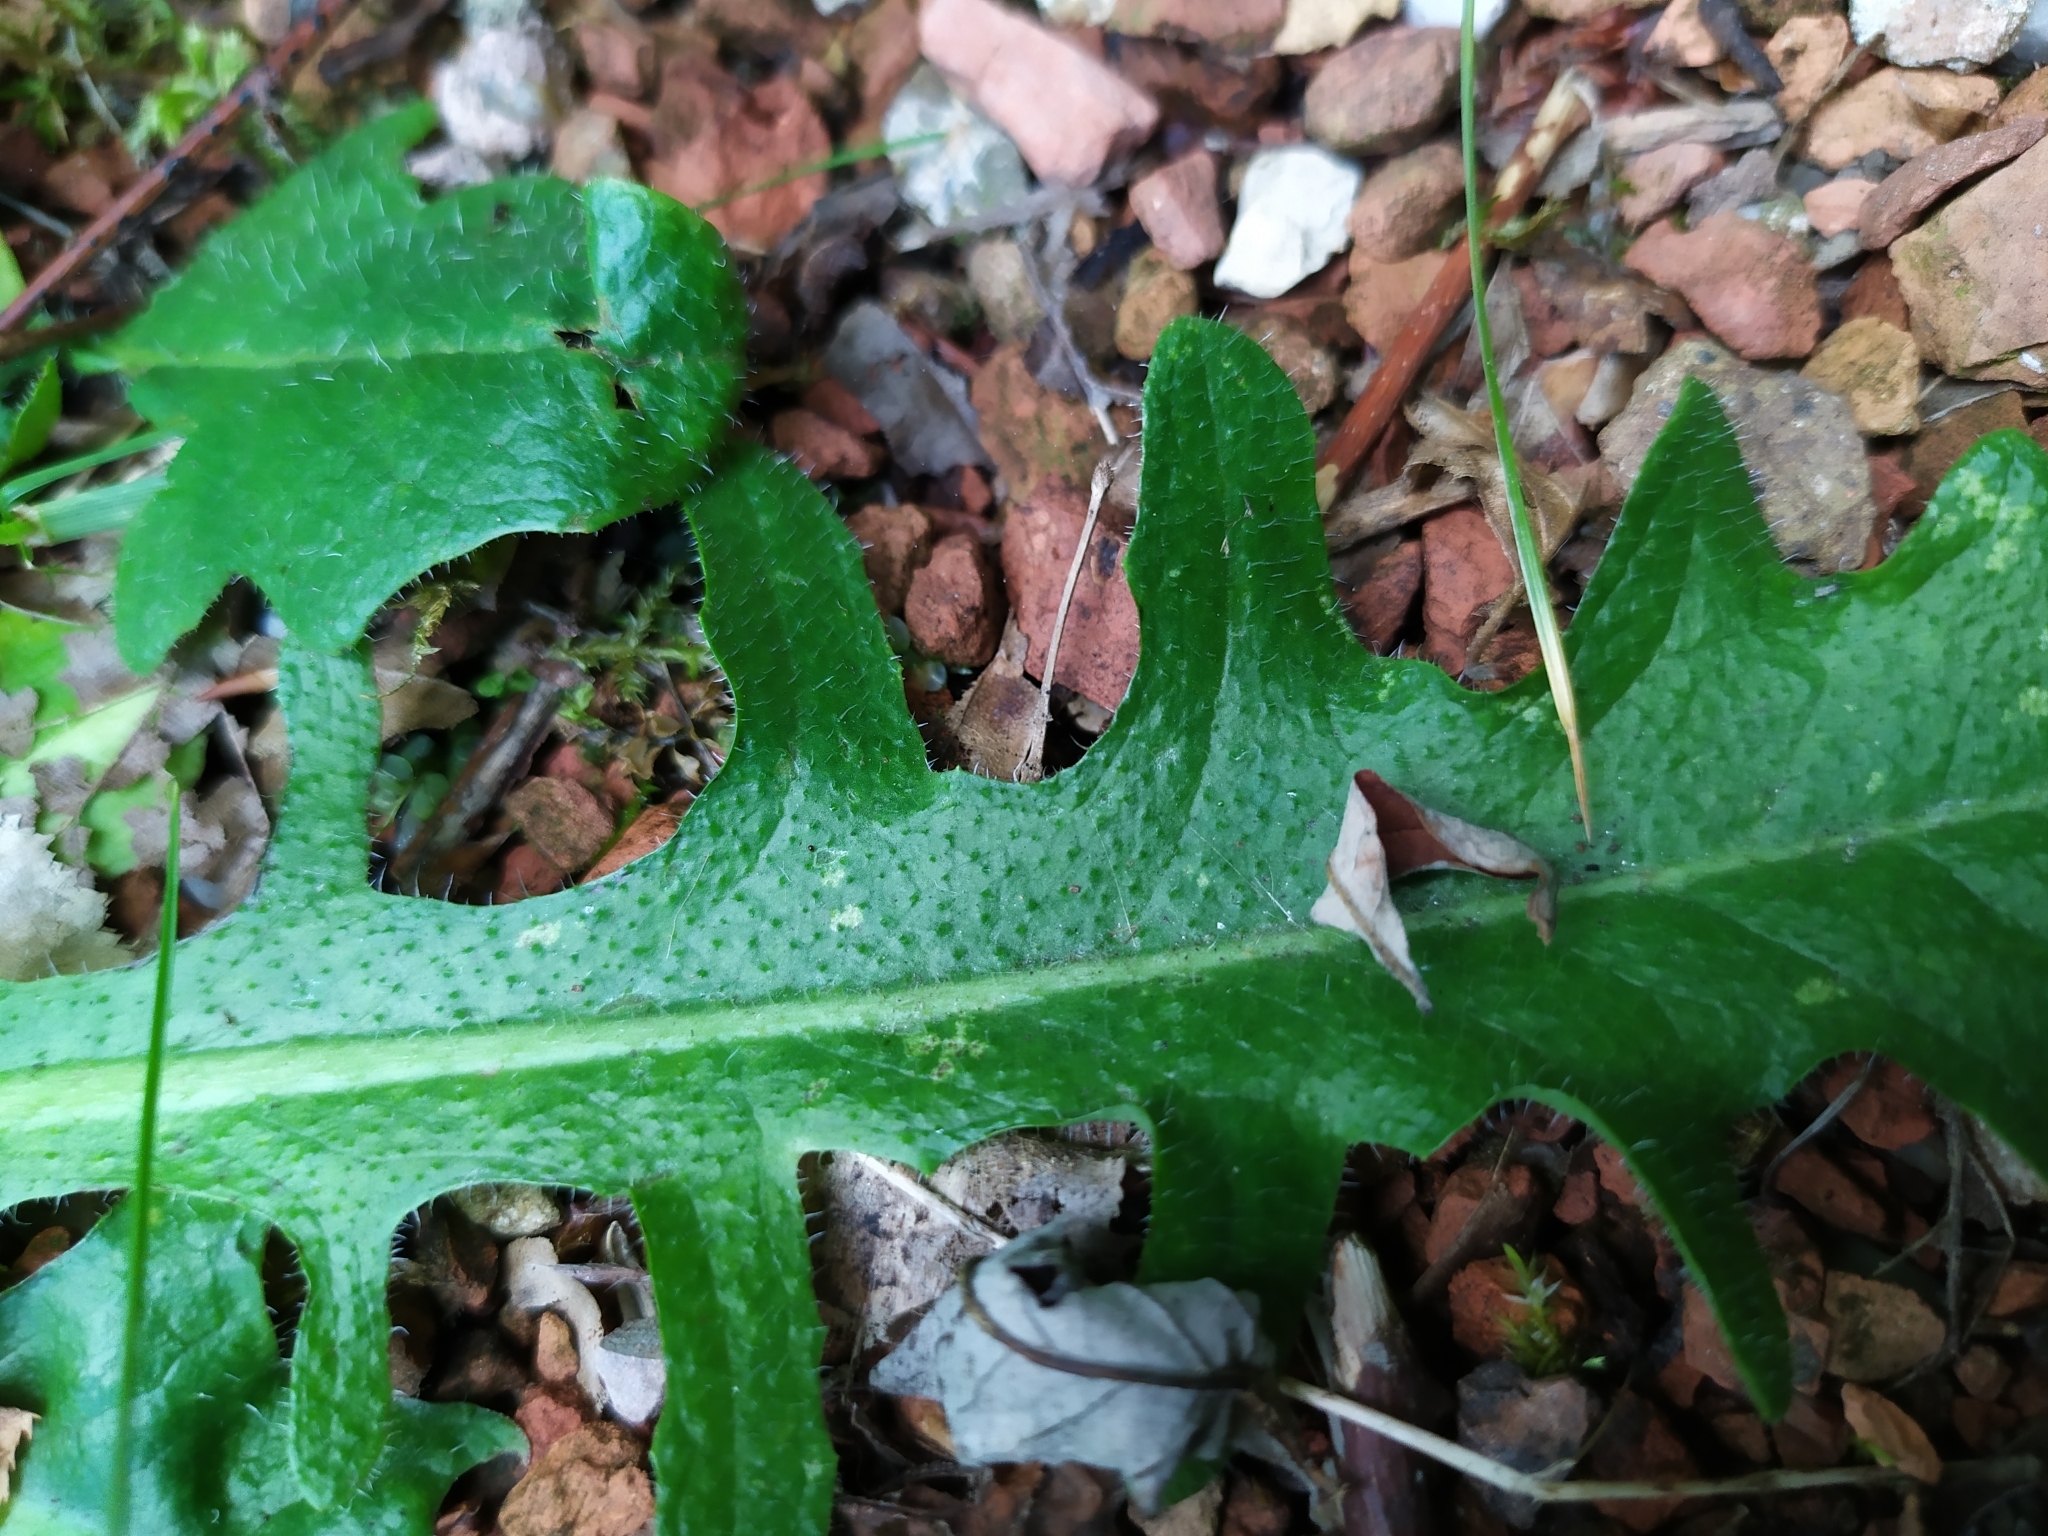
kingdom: Plantae
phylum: Tracheophyta
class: Magnoliopsida
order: Asterales
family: Asteraceae
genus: Hypochaeris
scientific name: Hypochaeris radicata
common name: Flatweed
